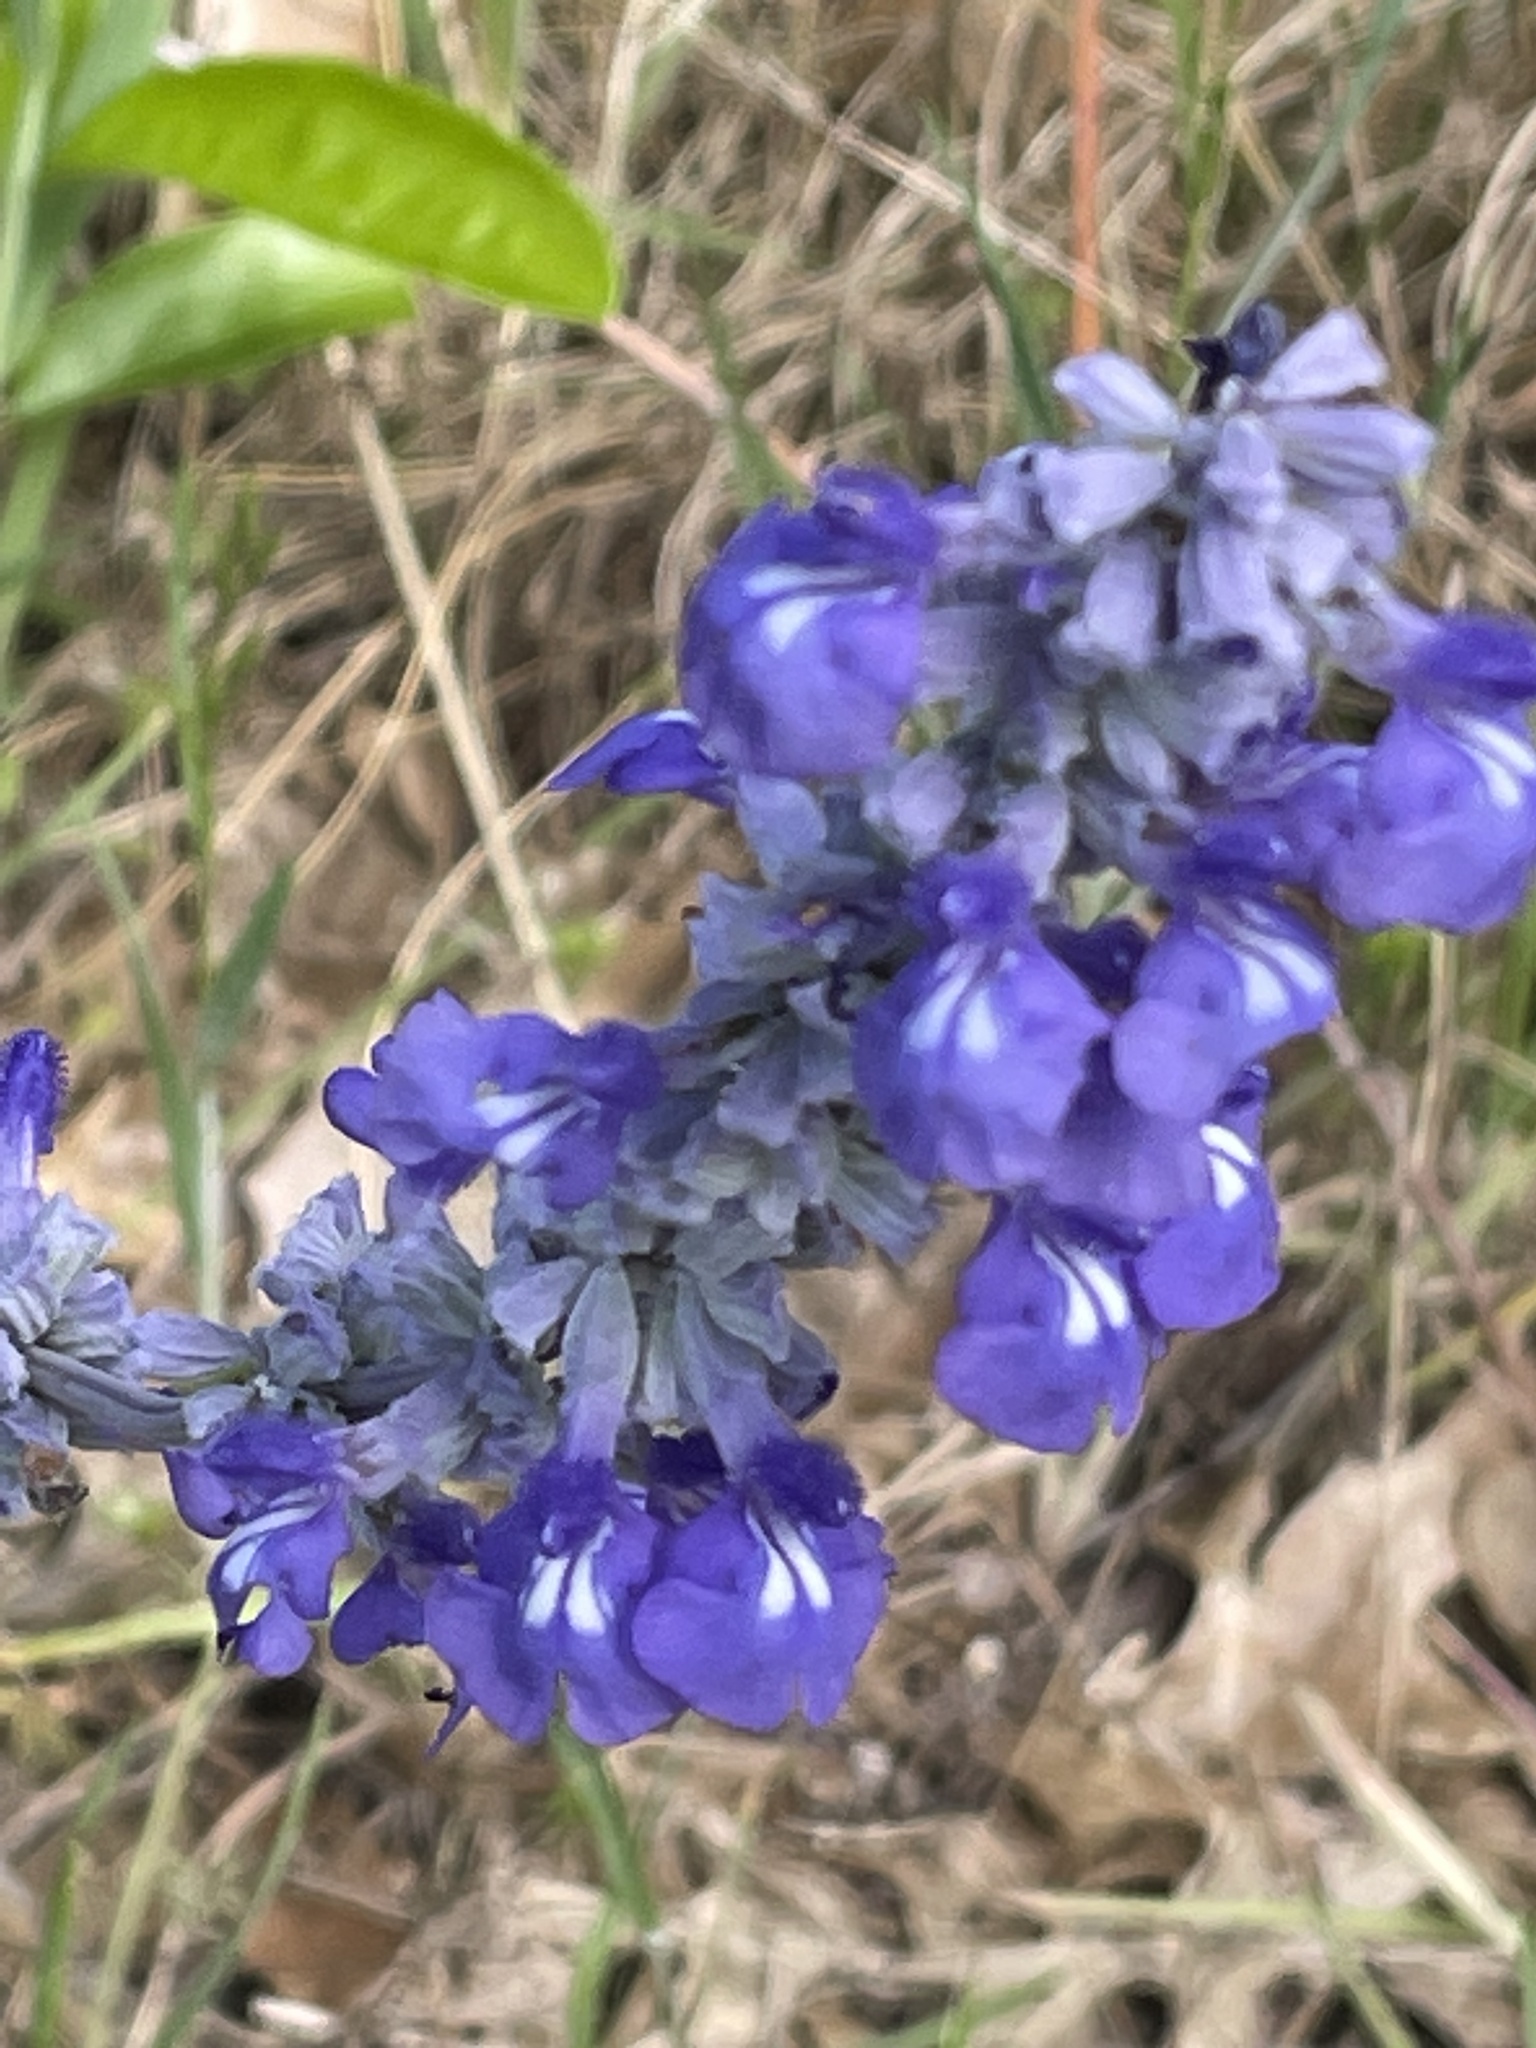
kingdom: Plantae
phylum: Tracheophyta
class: Magnoliopsida
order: Lamiales
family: Lamiaceae
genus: Salvia
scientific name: Salvia farinacea
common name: Mealy sage
